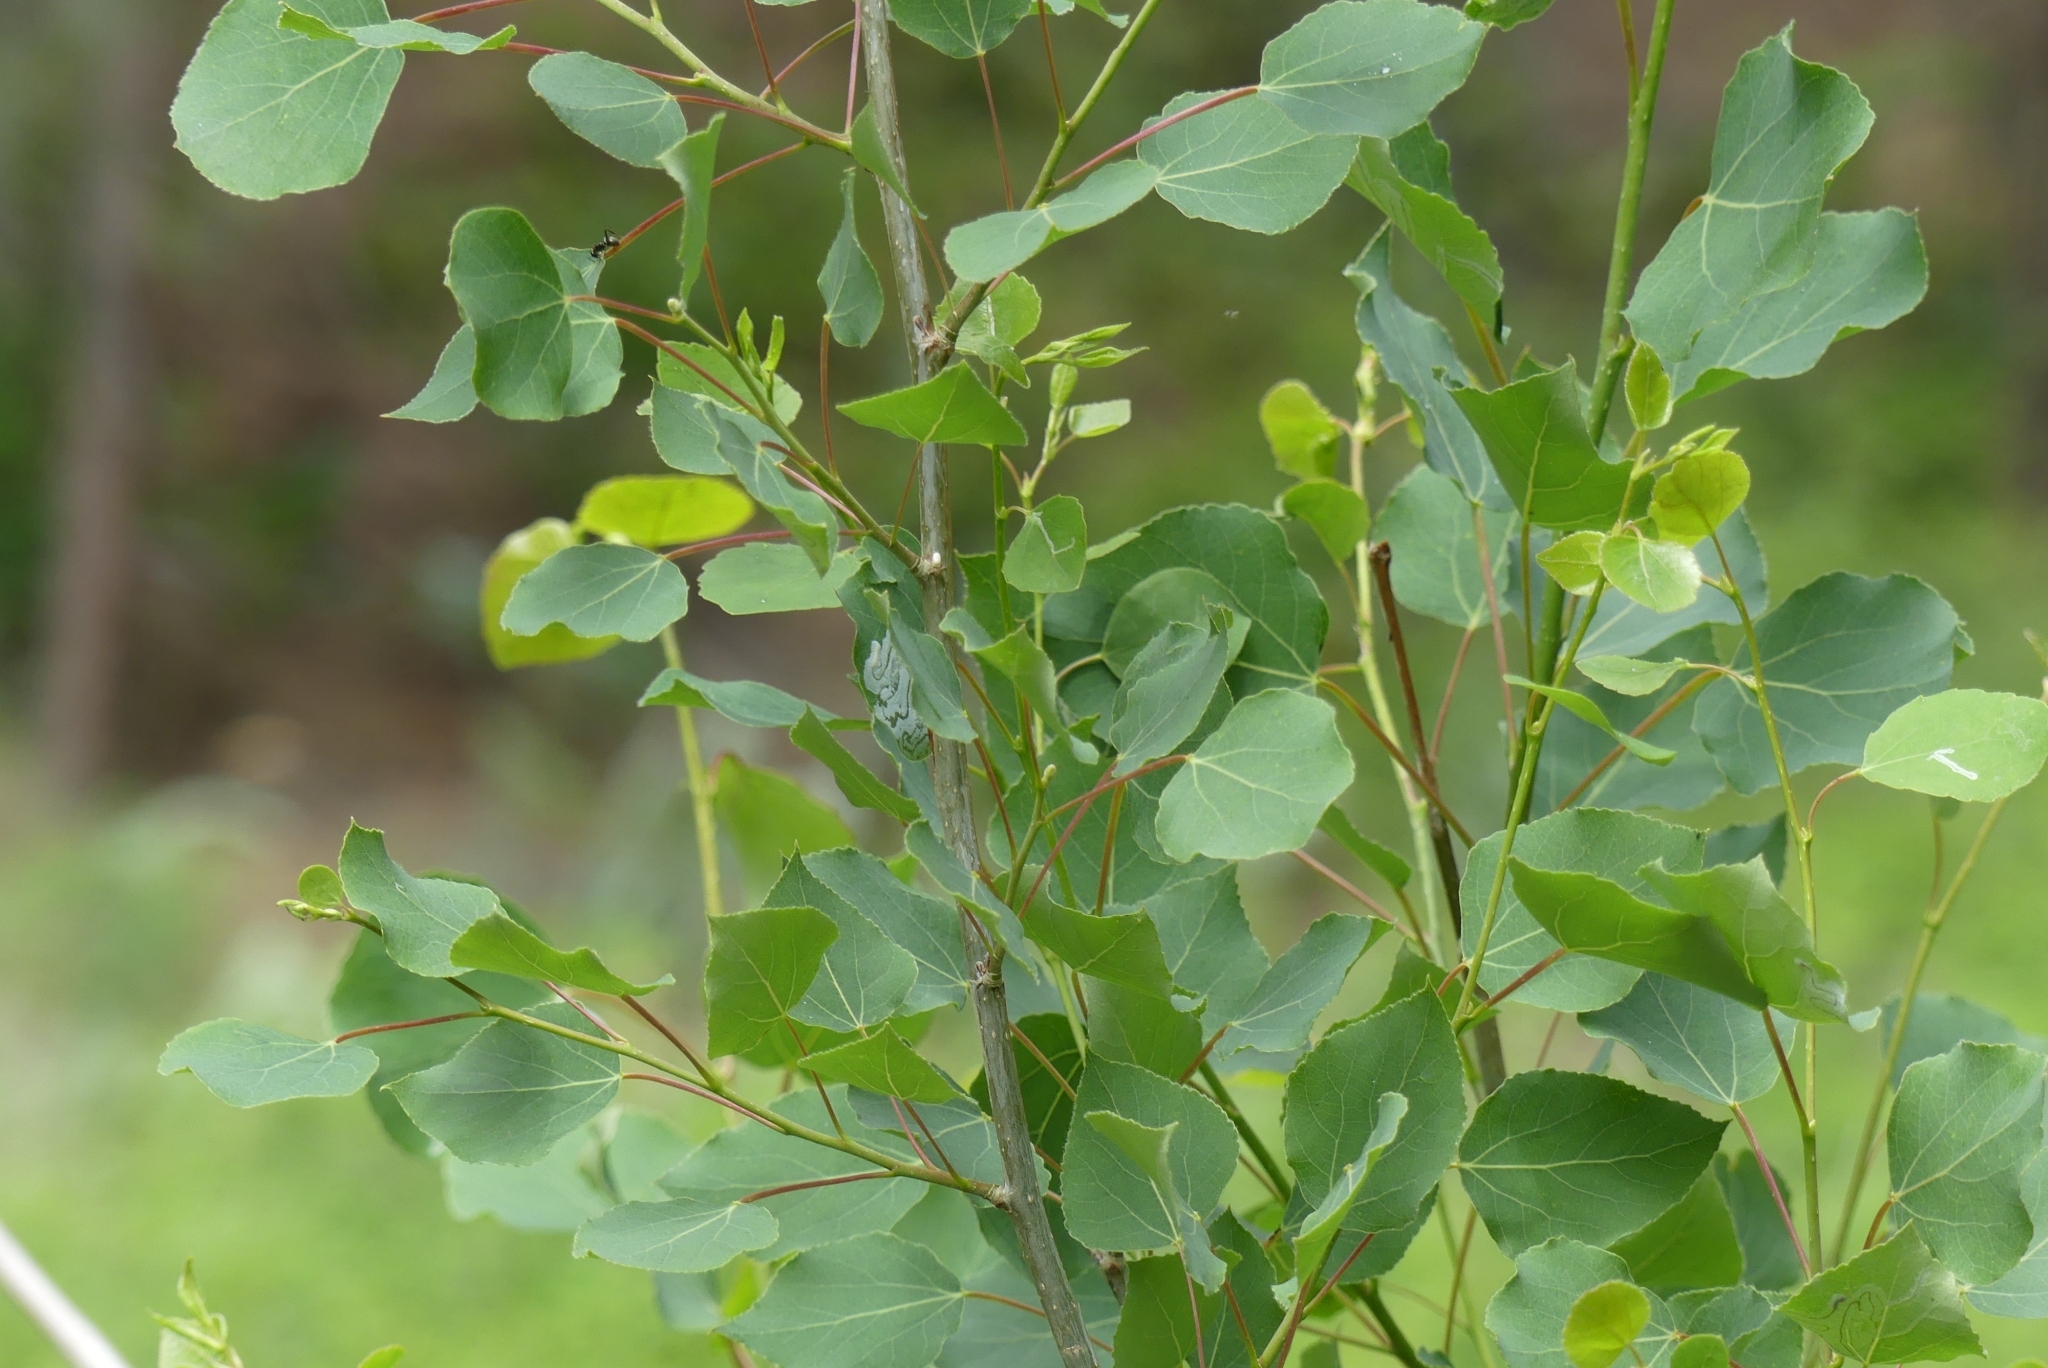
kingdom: Plantae
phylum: Tracheophyta
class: Magnoliopsida
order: Malpighiales
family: Salicaceae
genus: Populus
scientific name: Populus tremuloides
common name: Quaking aspen
